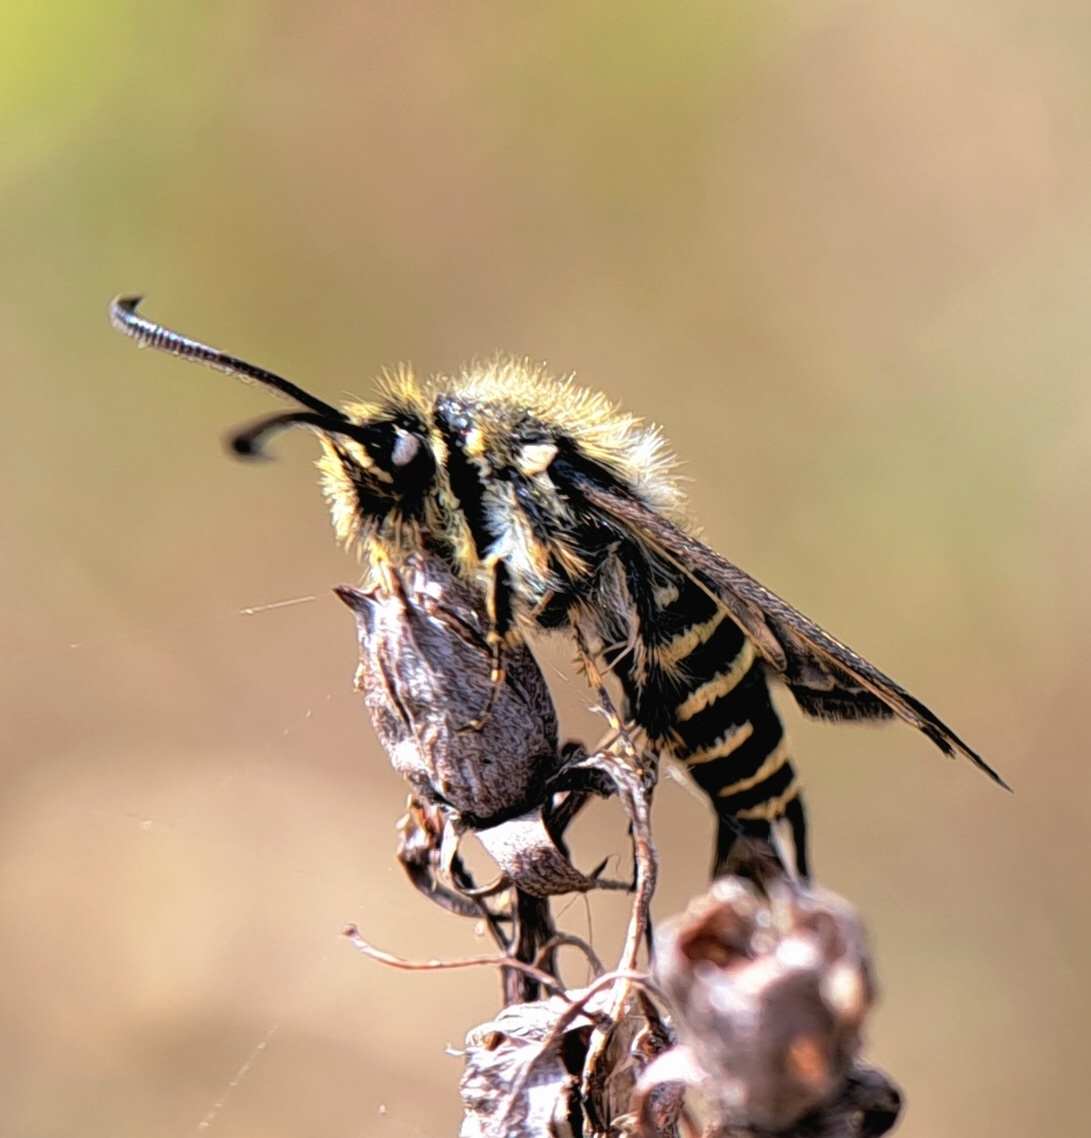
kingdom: Animalia
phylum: Arthropoda
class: Insecta
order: Lepidoptera
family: Sesiidae
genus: Bembecia
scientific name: Bembecia ichneumoniformis
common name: Six-belted clearwing
